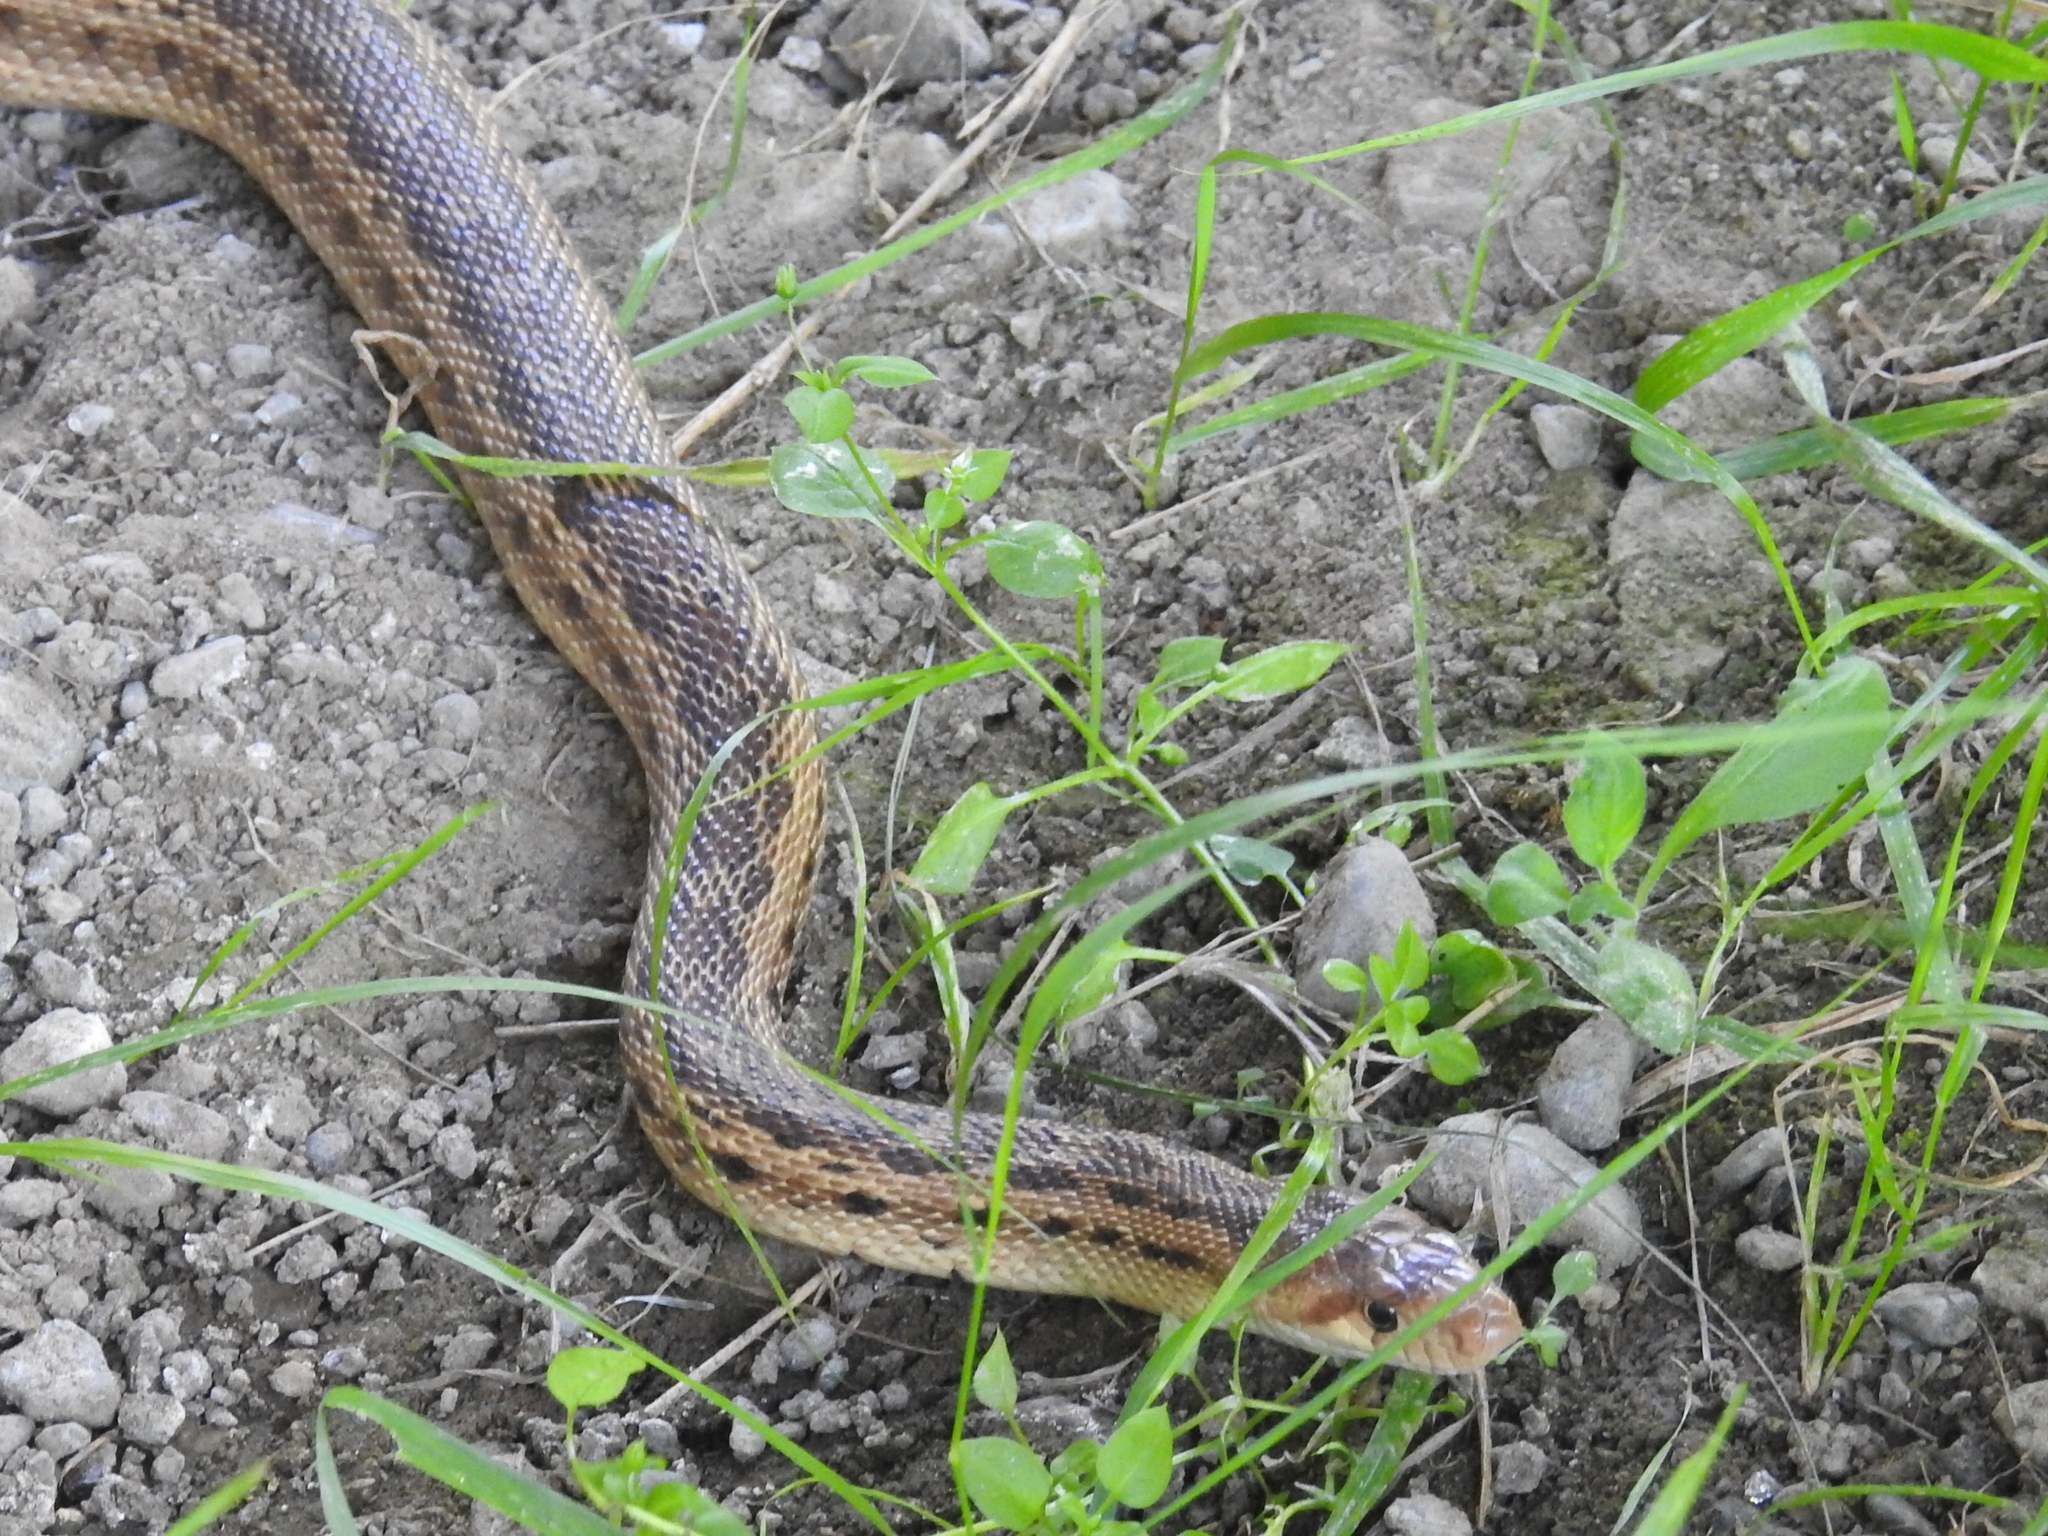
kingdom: Animalia
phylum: Chordata
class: Squamata
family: Colubridae
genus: Pituophis
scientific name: Pituophis catenifer
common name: Gopher snake
